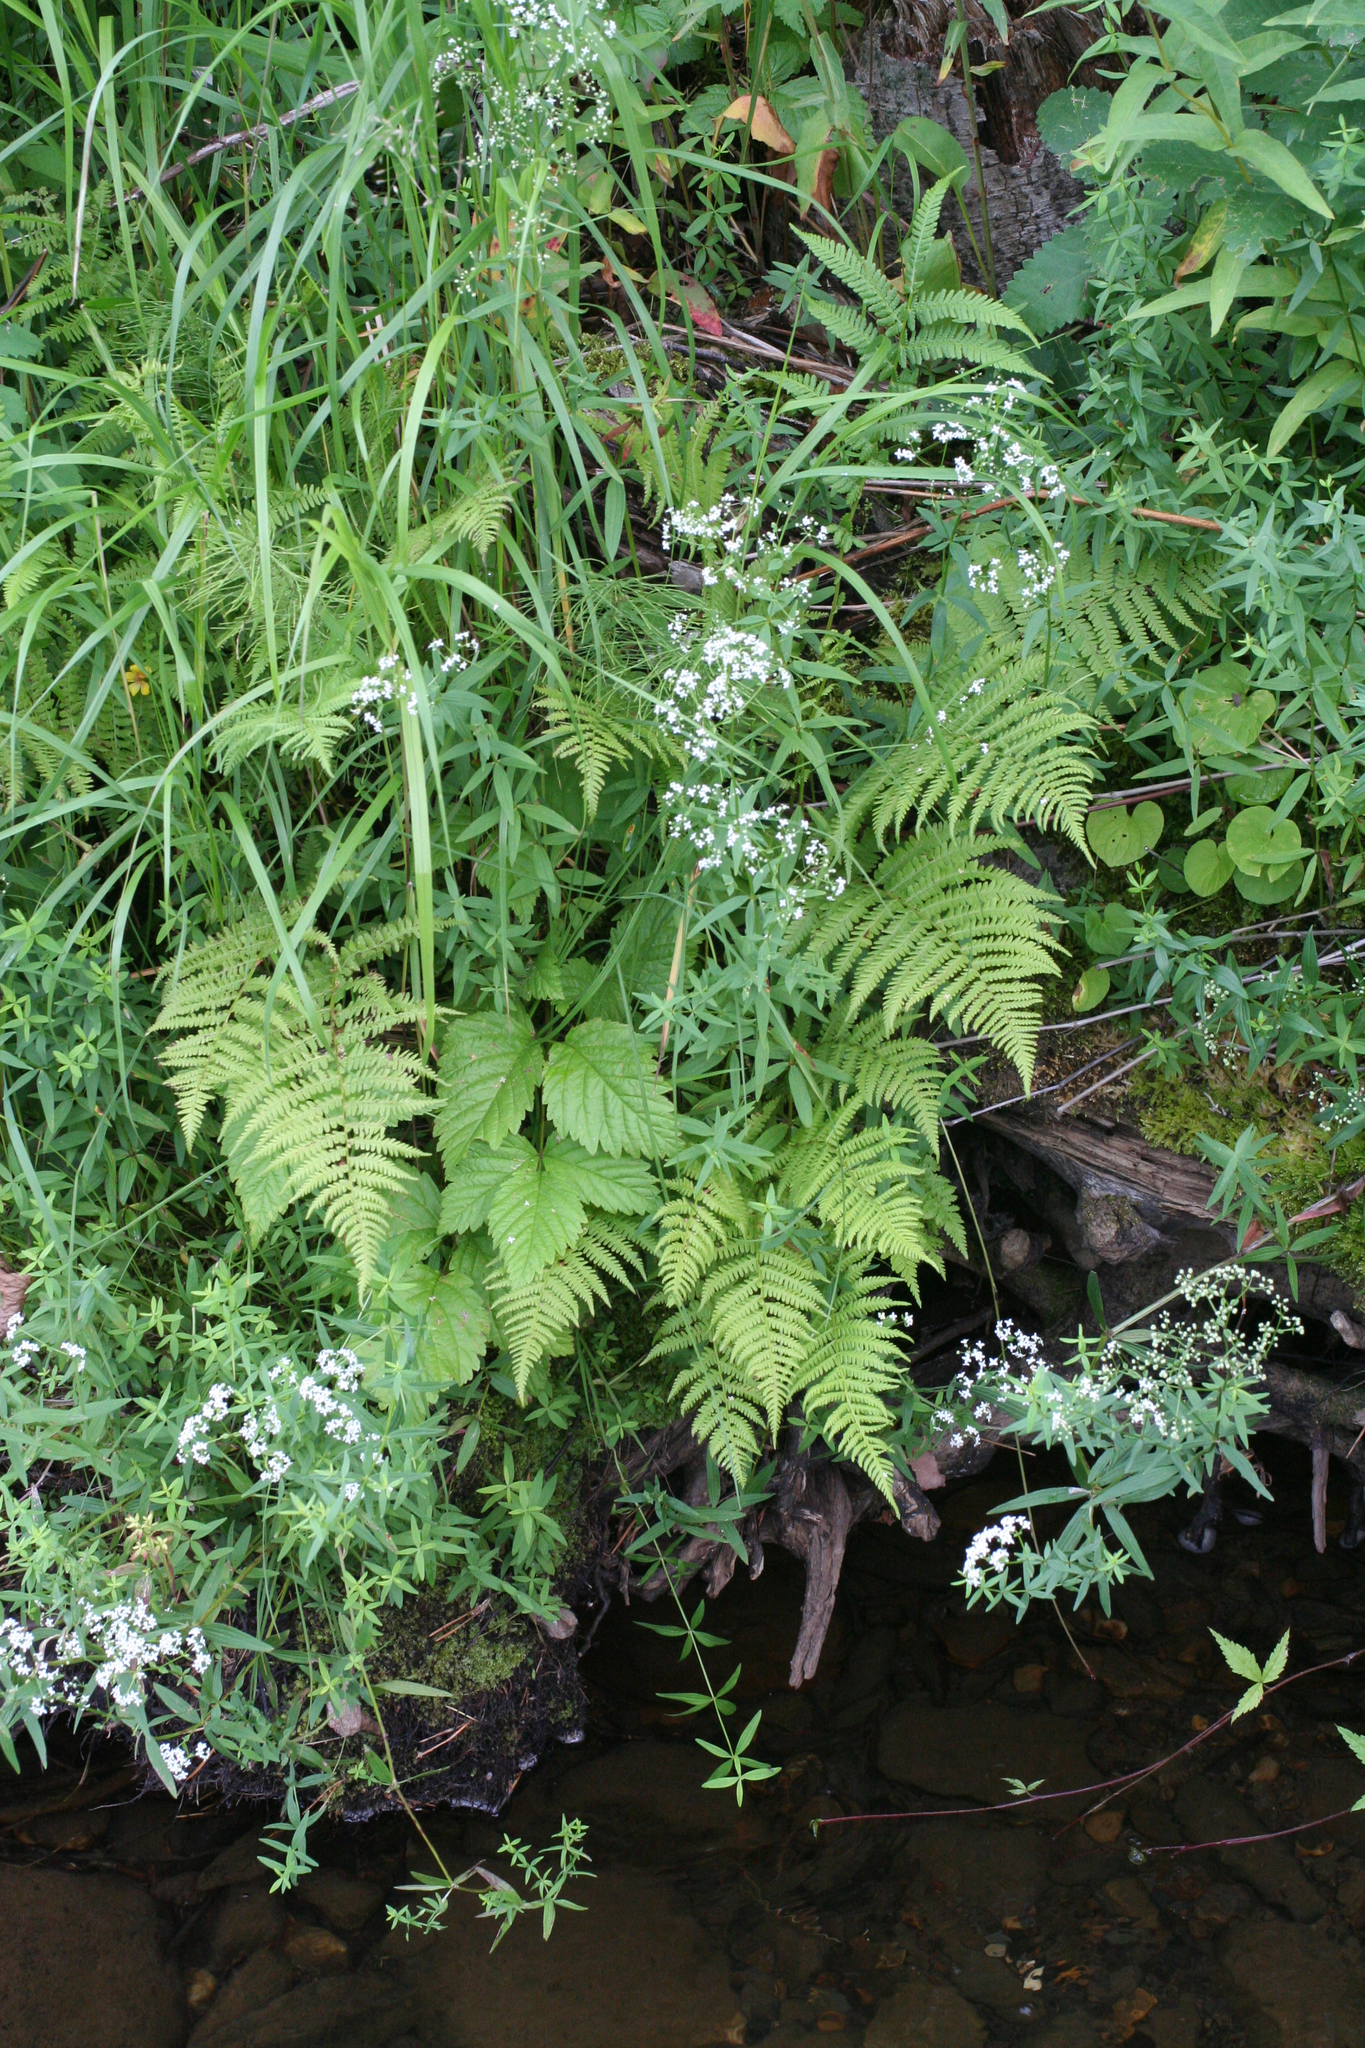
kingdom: Plantae
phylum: Tracheophyta
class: Magnoliopsida
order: Gentianales
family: Rubiaceae
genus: Galium
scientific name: Galium boreale
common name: Northern bedstraw
